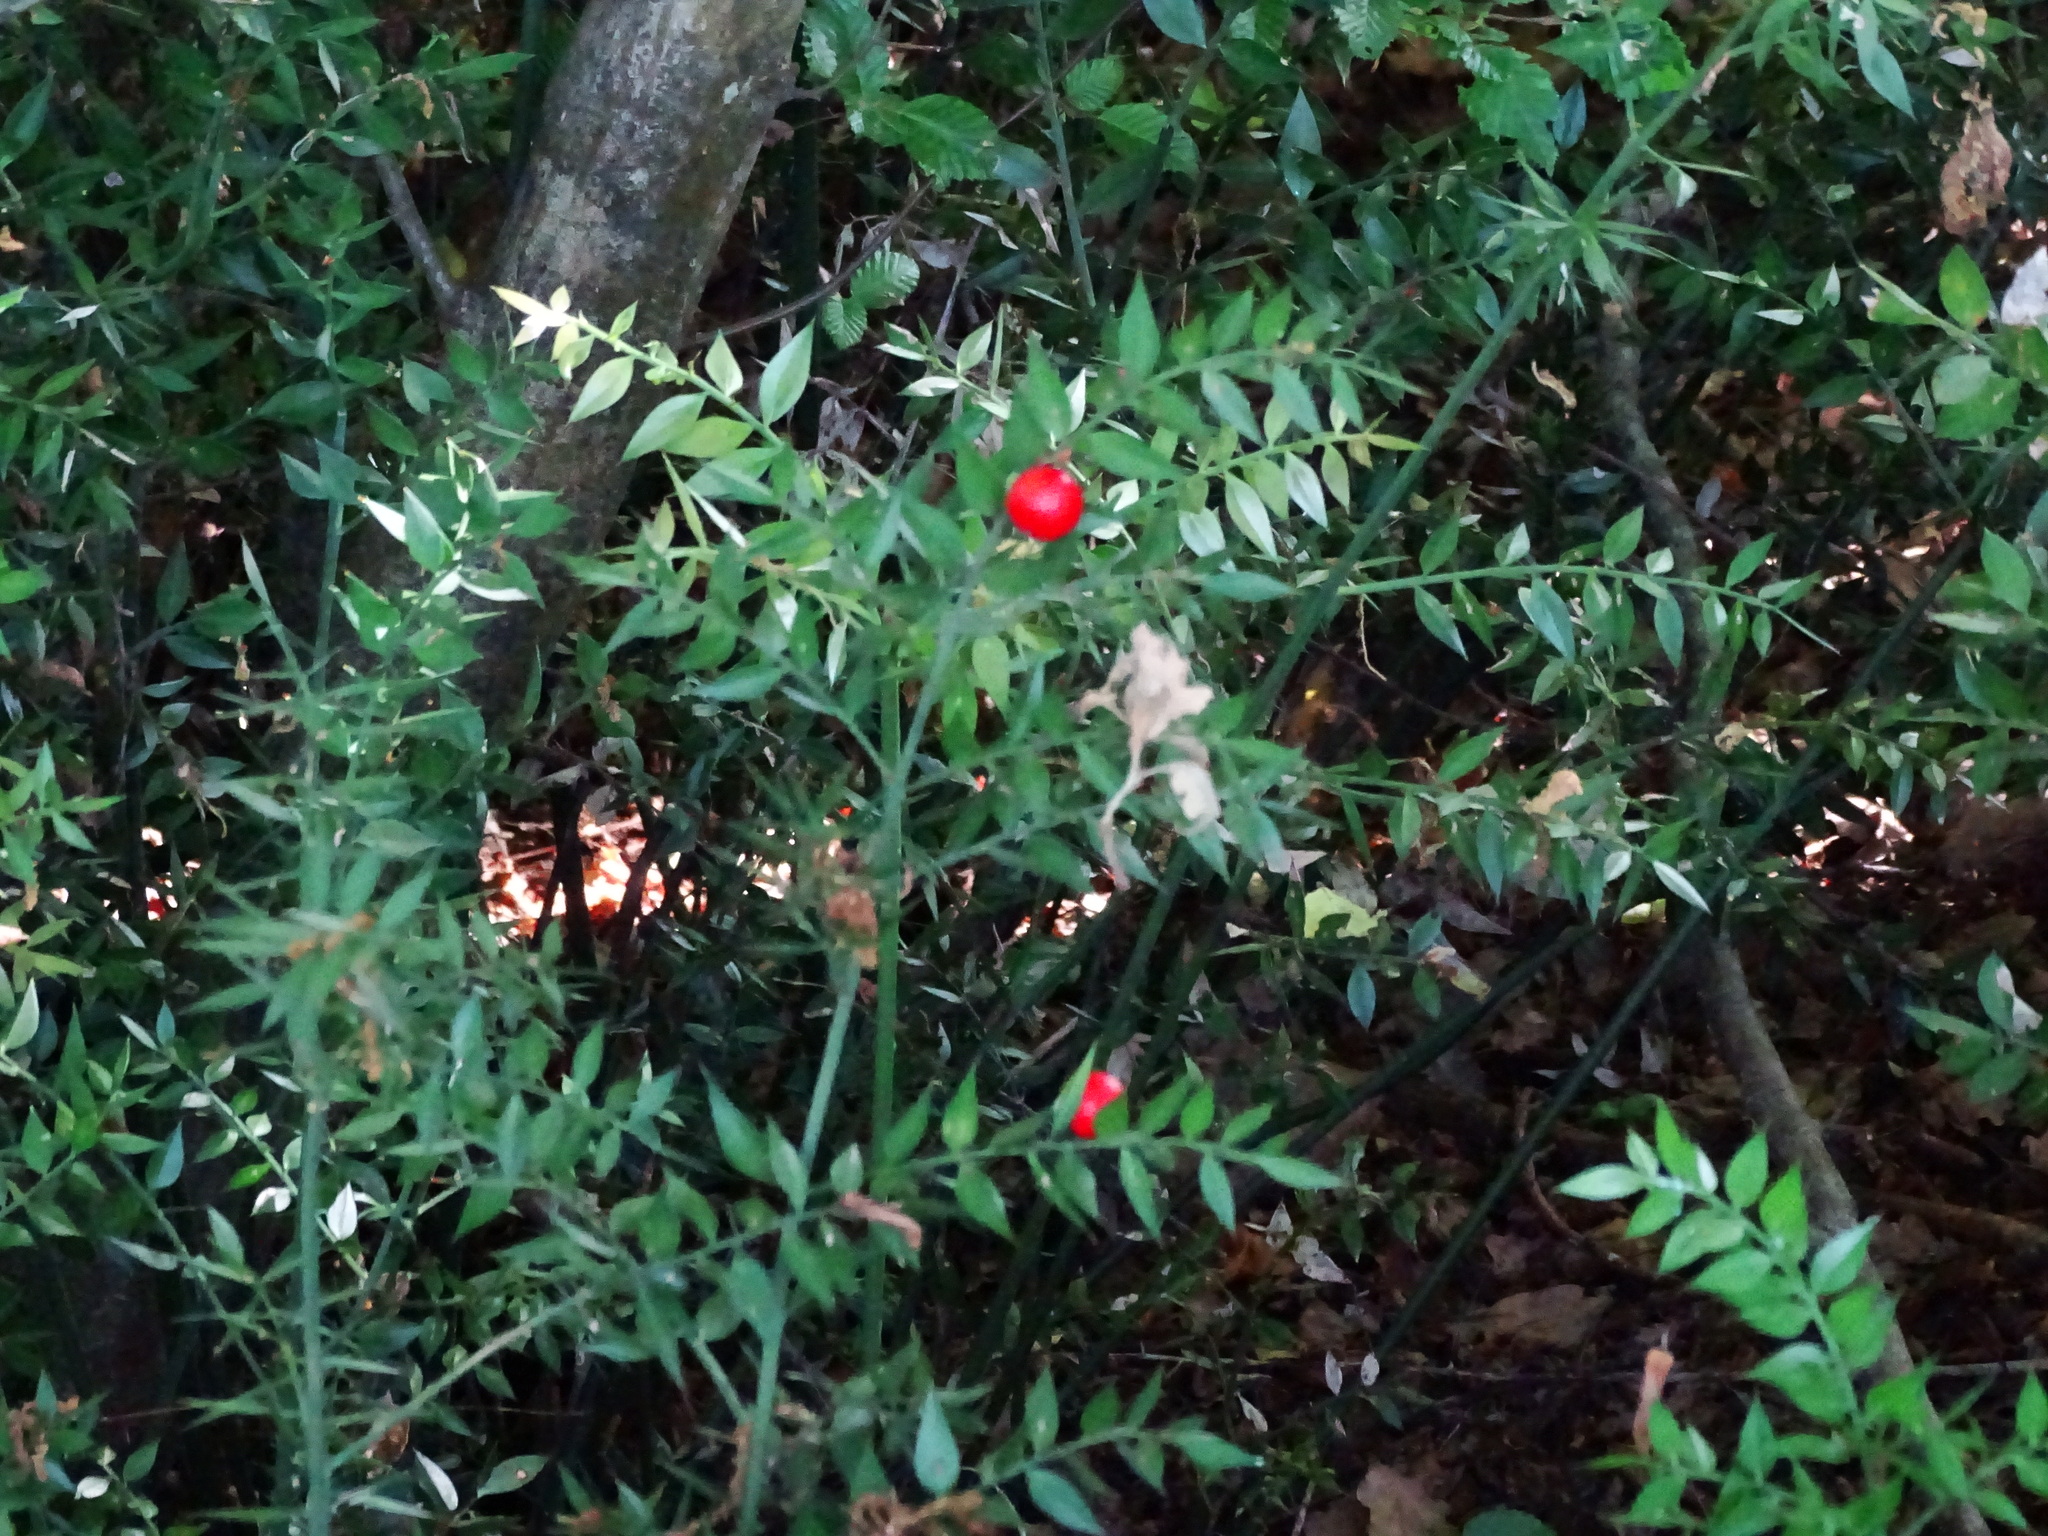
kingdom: Plantae
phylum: Tracheophyta
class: Liliopsida
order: Asparagales
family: Asparagaceae
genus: Ruscus
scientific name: Ruscus aculeatus
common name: Butcher's-broom
